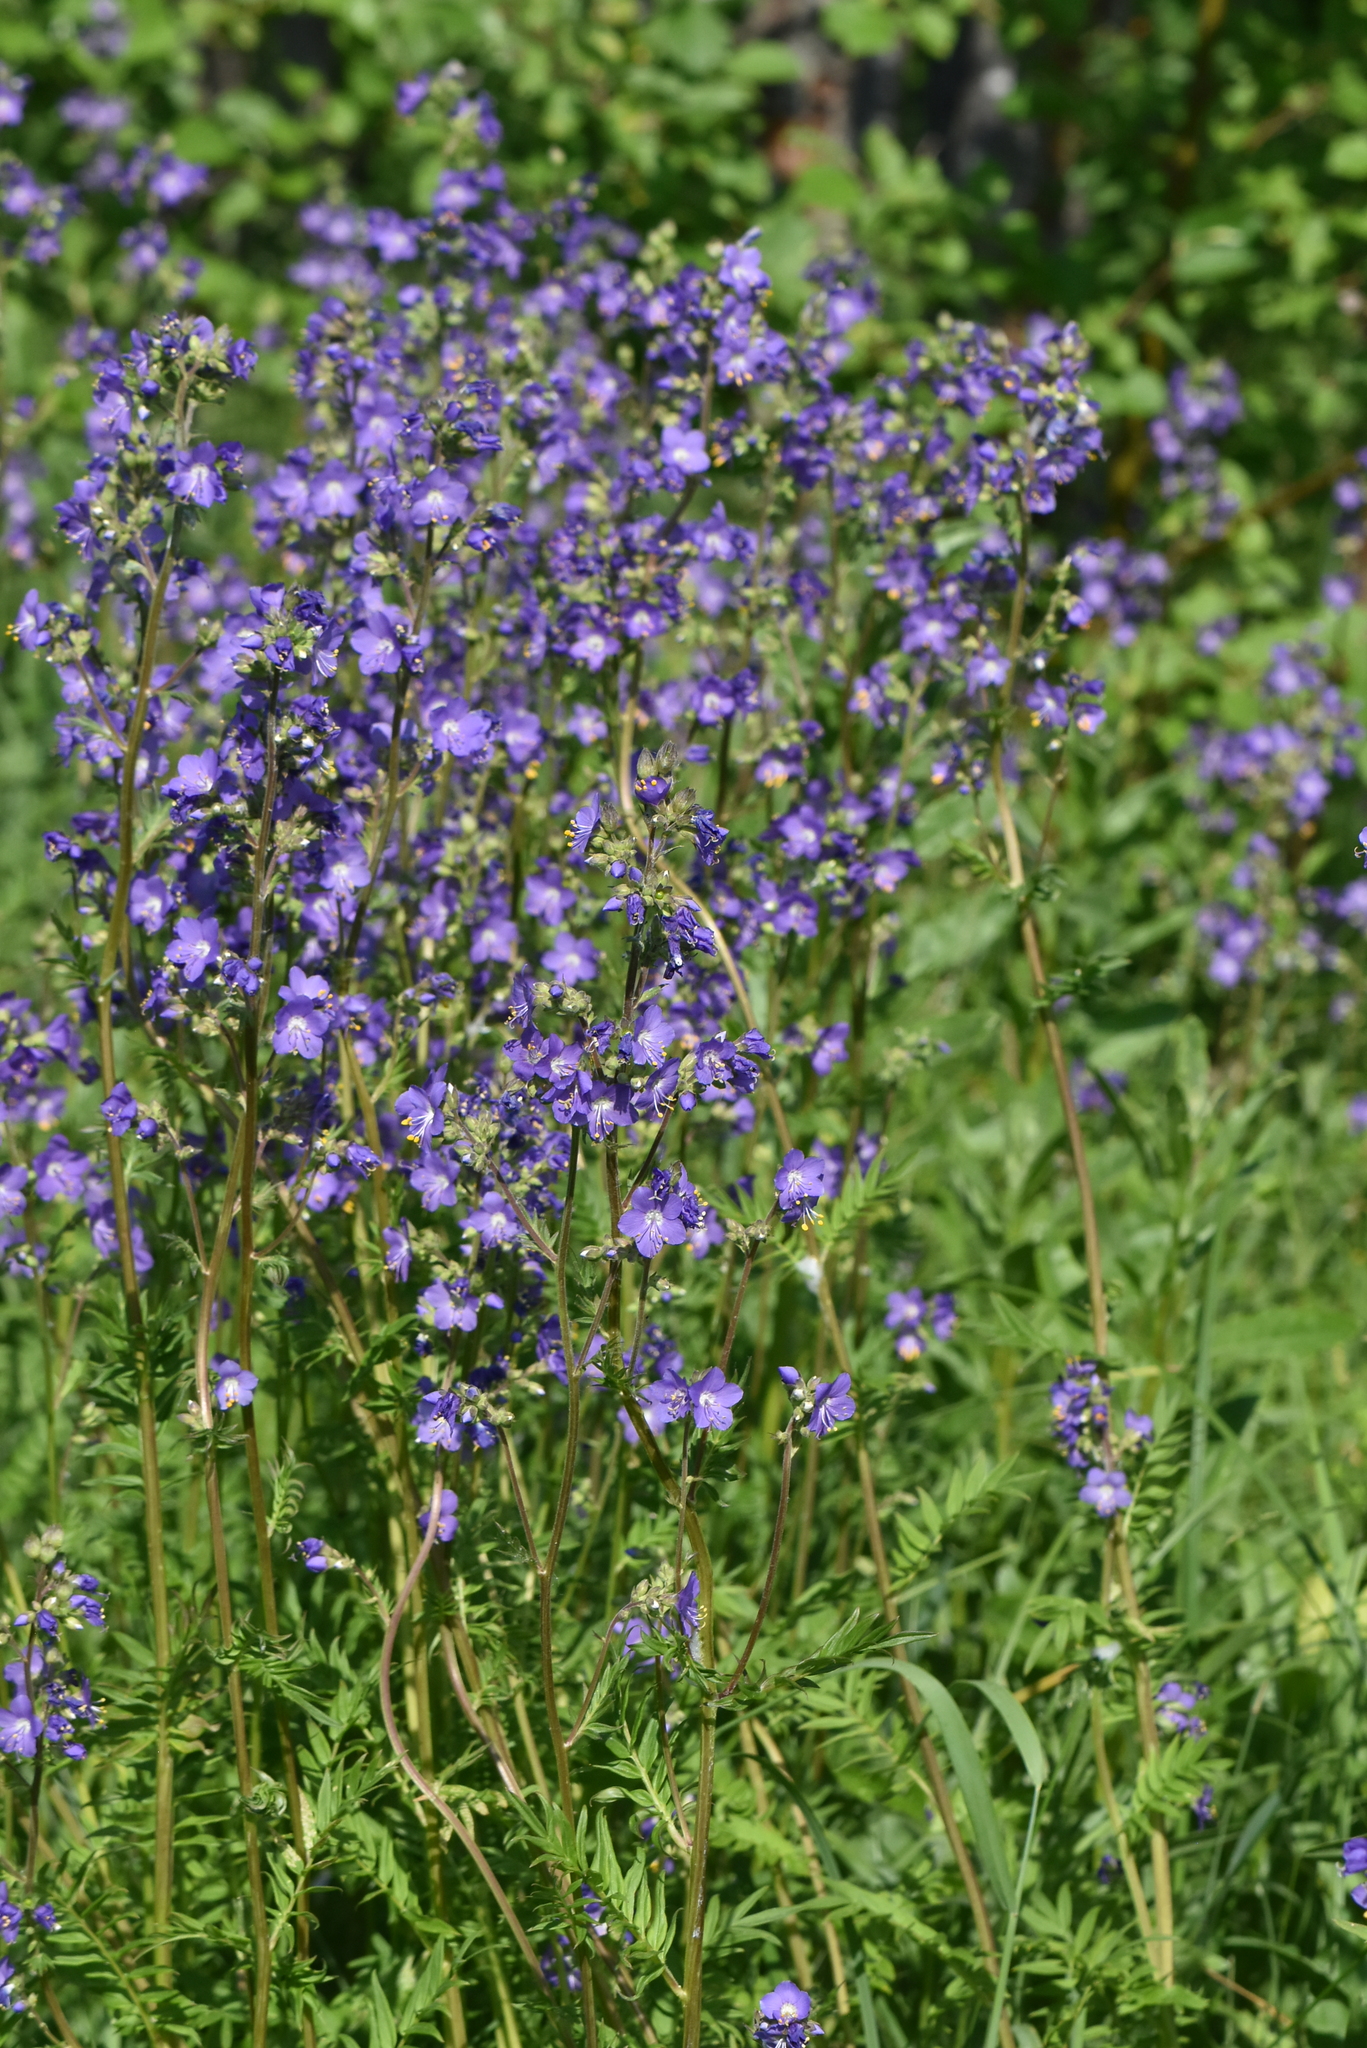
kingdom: Plantae
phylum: Tracheophyta
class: Magnoliopsida
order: Ericales
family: Polemoniaceae
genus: Polemonium
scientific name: Polemonium caeruleum
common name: Jacob's-ladder
